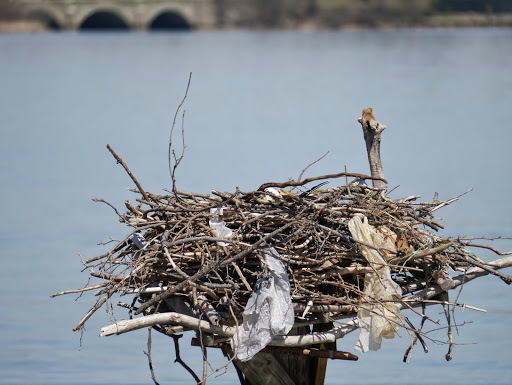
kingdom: Animalia
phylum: Chordata
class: Aves
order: Accipitriformes
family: Pandionidae
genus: Pandion
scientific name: Pandion haliaetus
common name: Osprey
